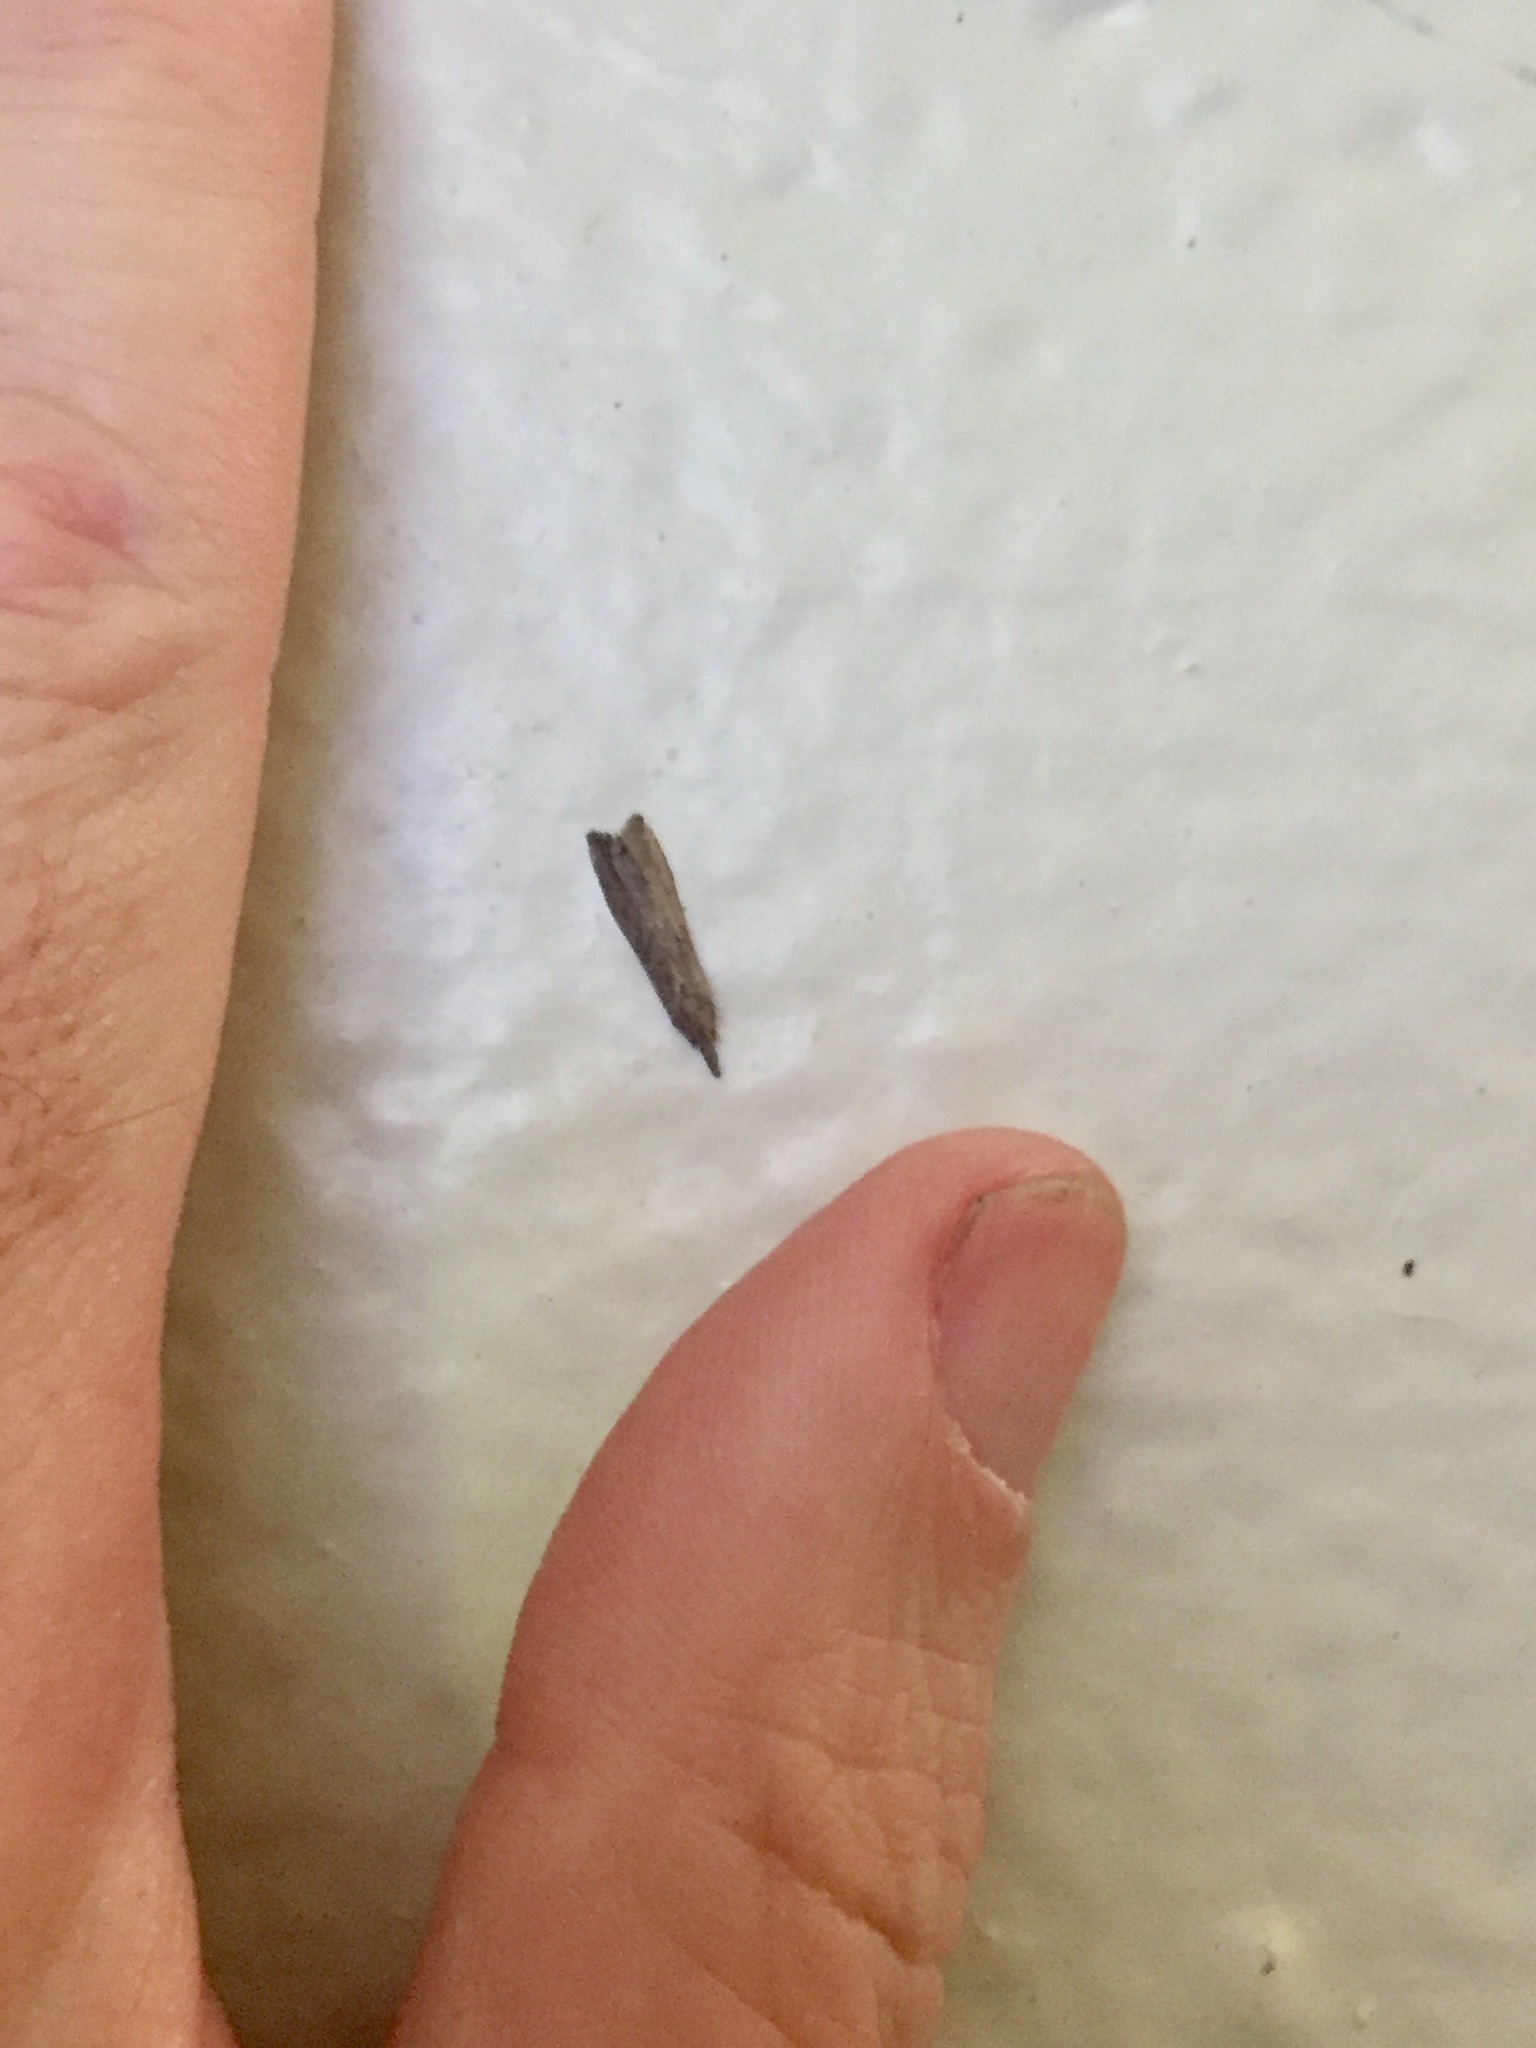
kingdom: Animalia
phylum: Arthropoda
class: Insecta
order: Lepidoptera
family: Erebidae
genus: Schrankia
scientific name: Schrankia costaestrigalis
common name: Pinion-streaked snout
